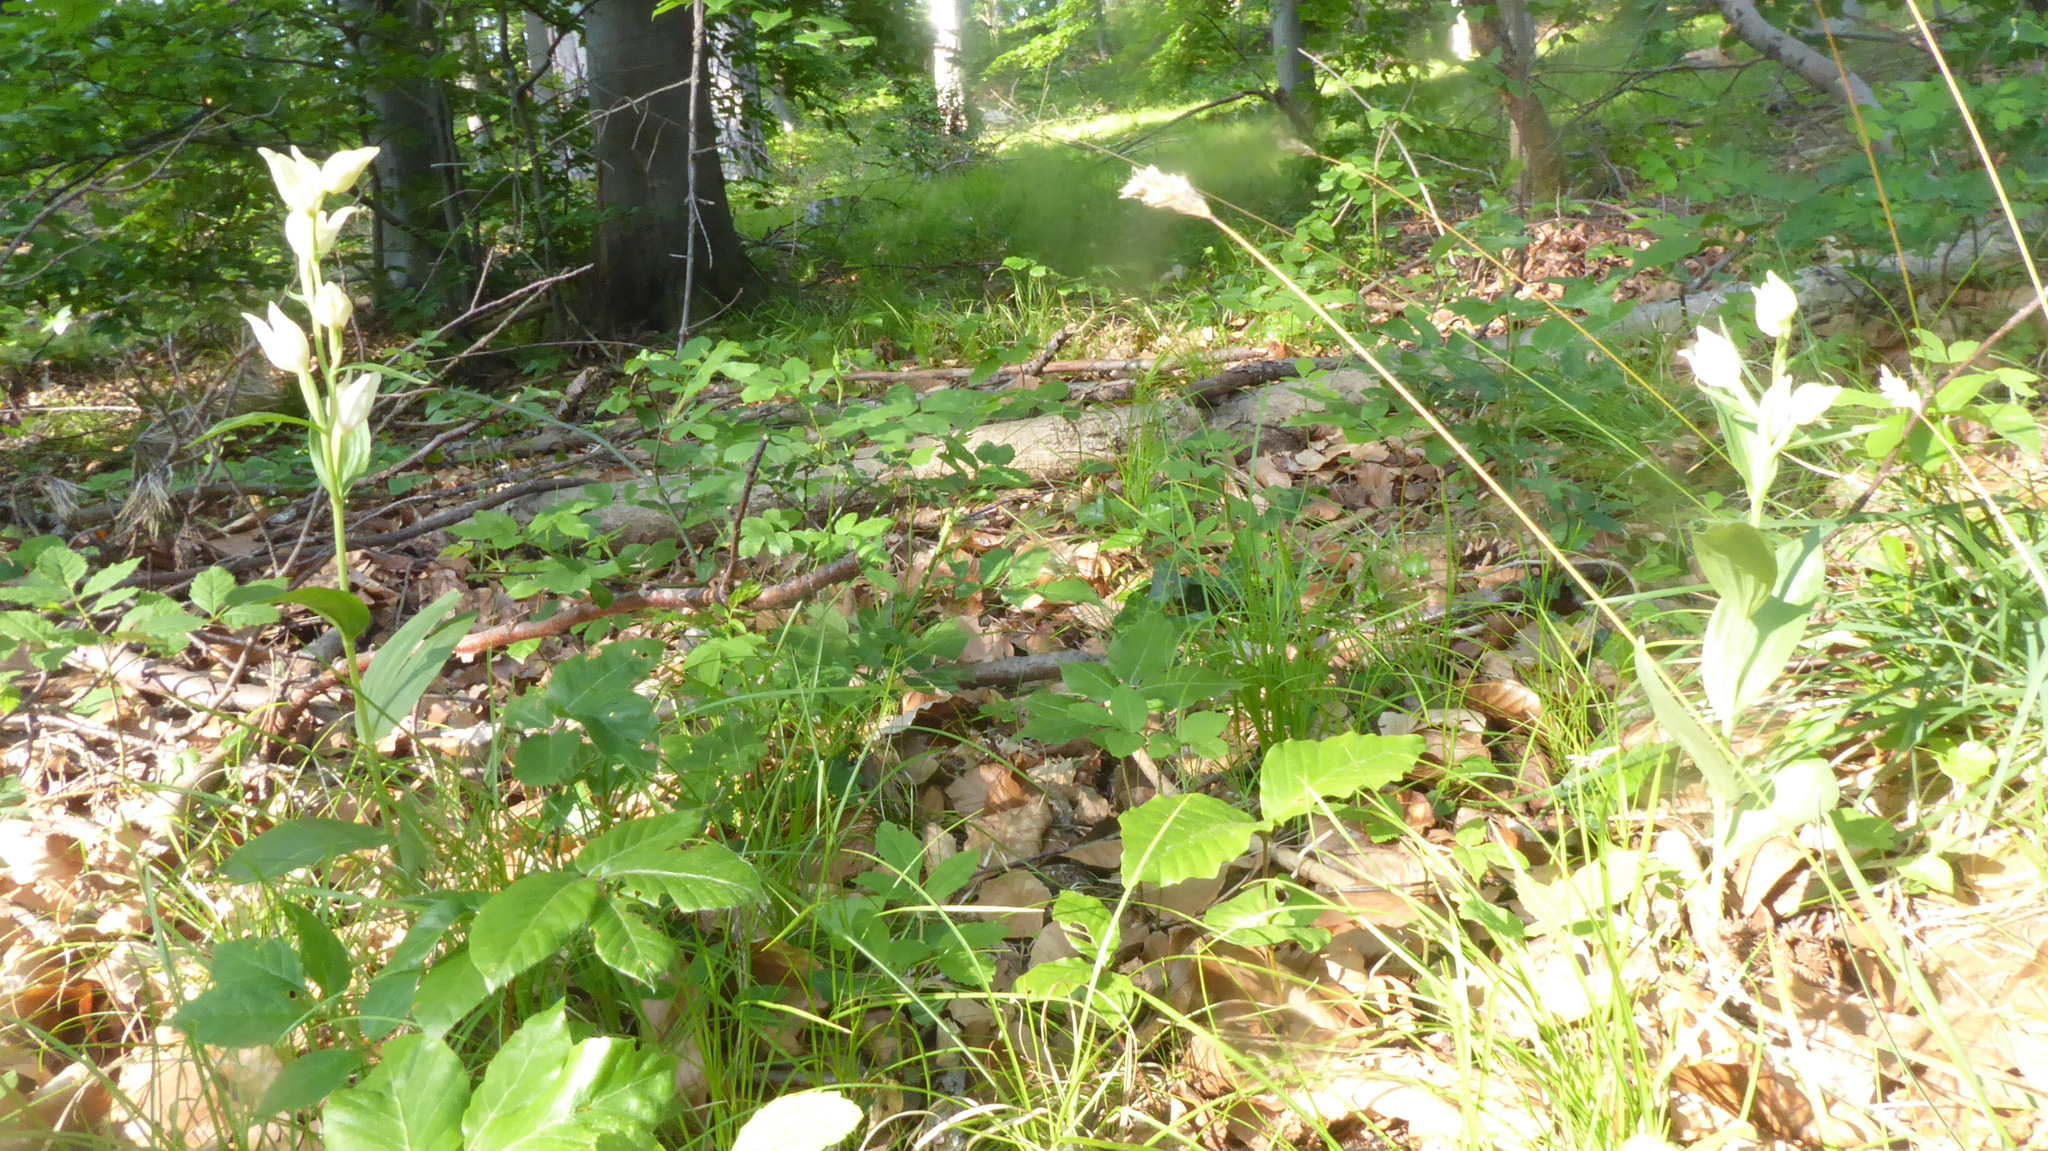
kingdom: Plantae
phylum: Tracheophyta
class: Liliopsida
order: Asparagales
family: Orchidaceae
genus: Cephalanthera
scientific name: Cephalanthera damasonium
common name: White helleborine
